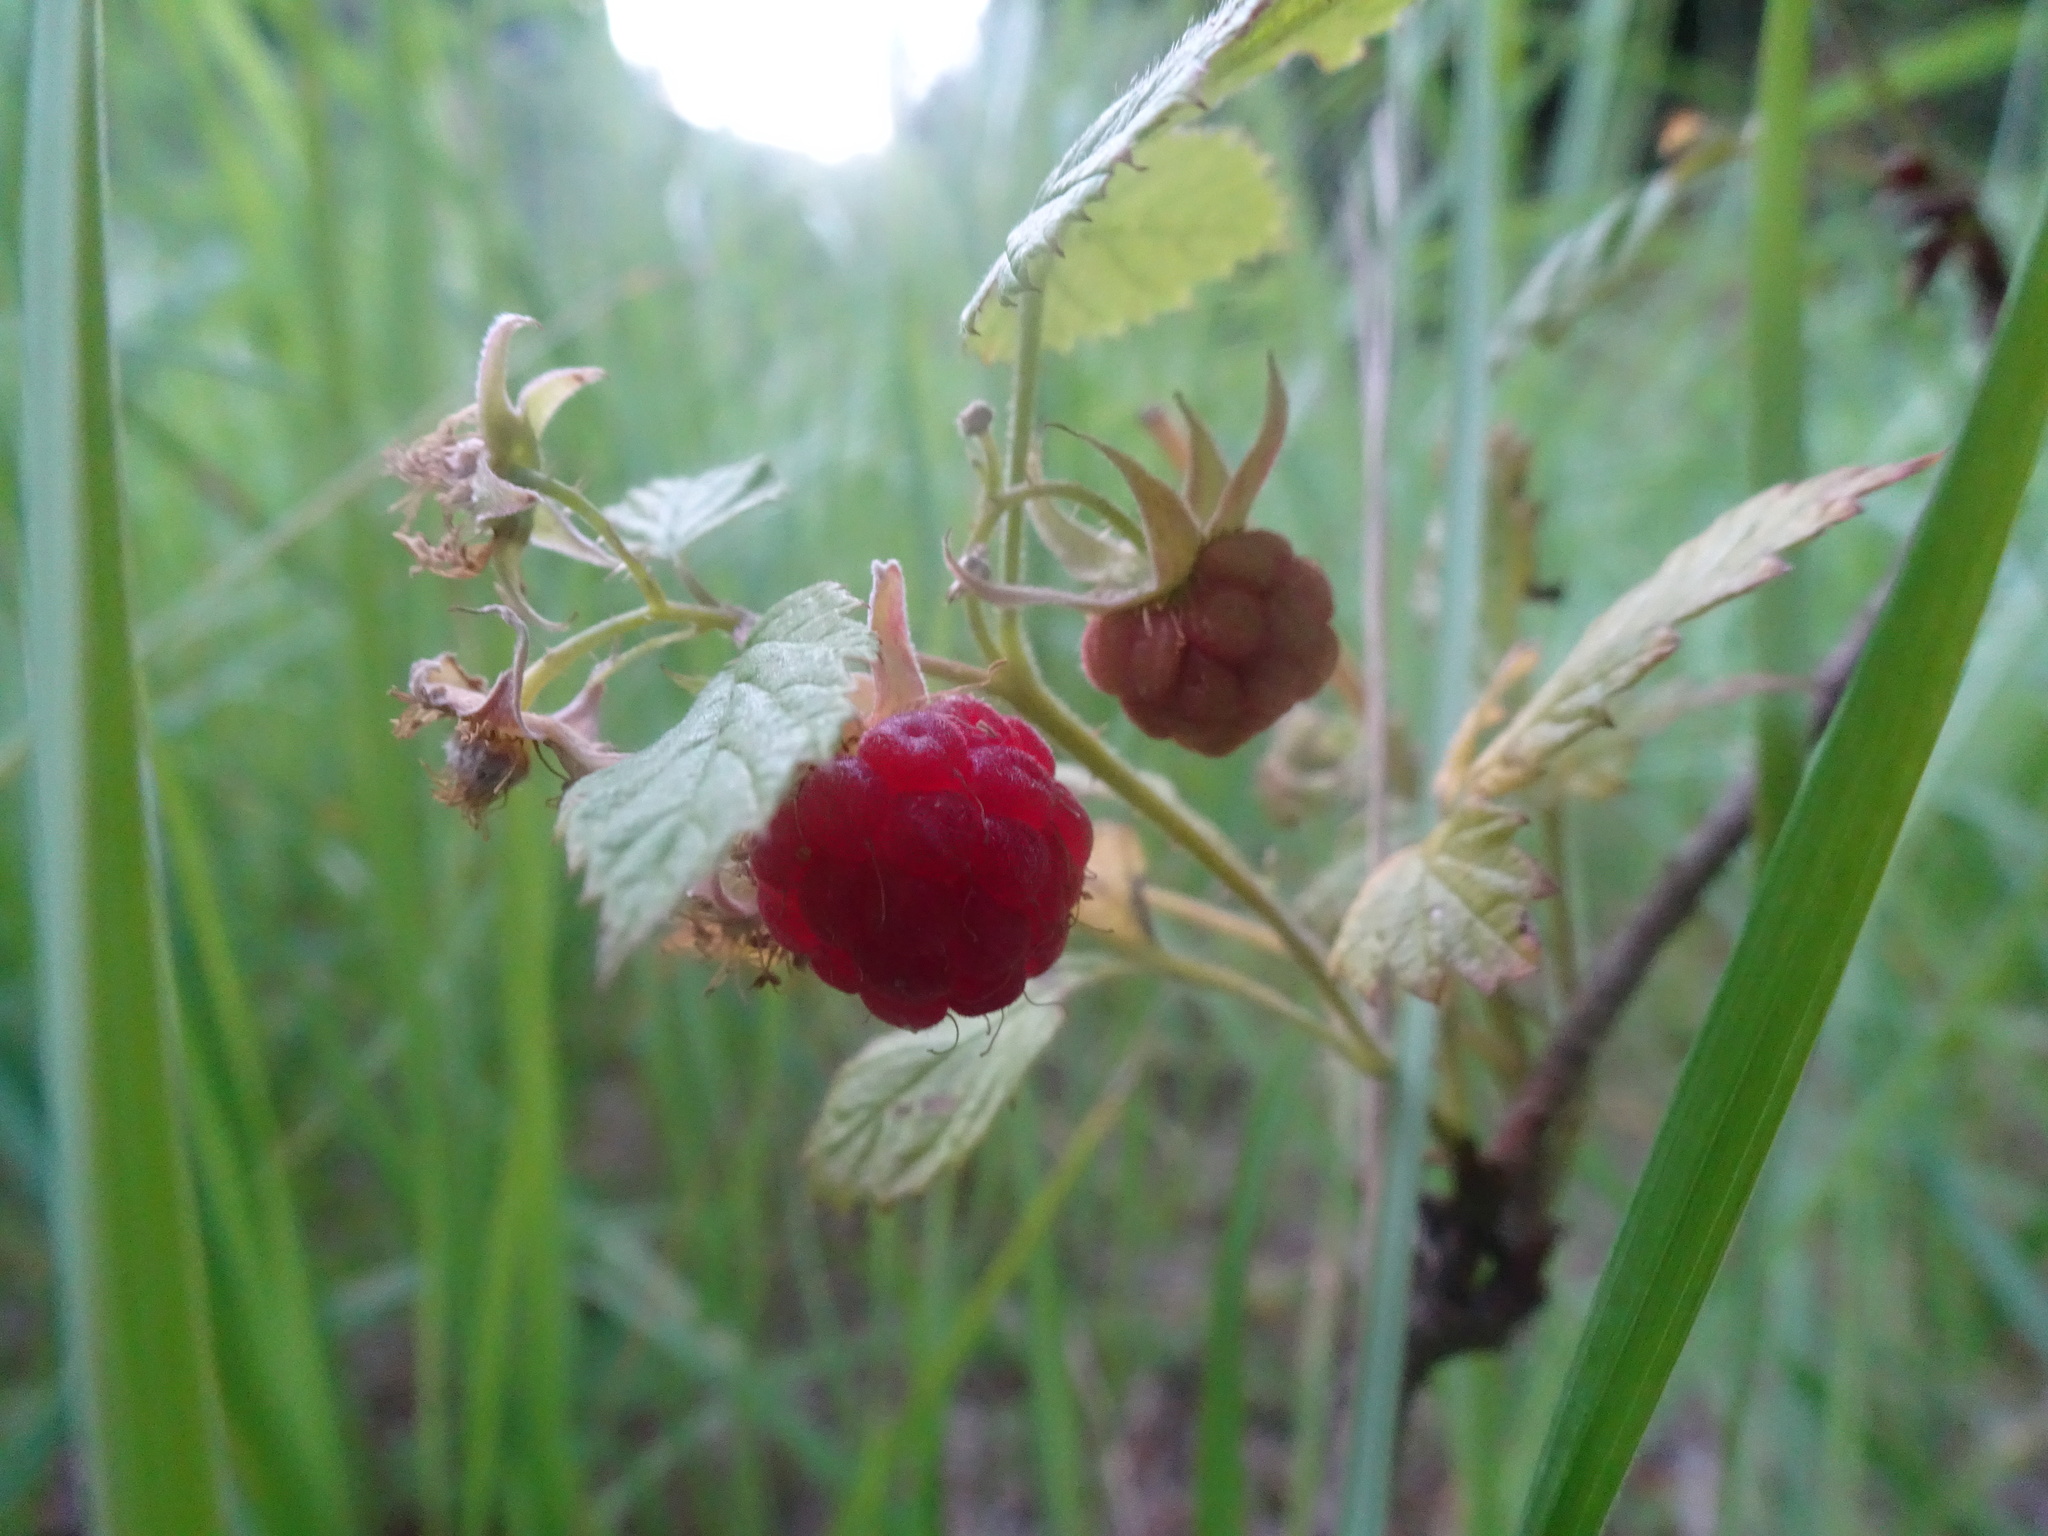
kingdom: Plantae
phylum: Tracheophyta
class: Magnoliopsida
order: Rosales
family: Rosaceae
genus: Rubus
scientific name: Rubus idaeus
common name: Raspberry
